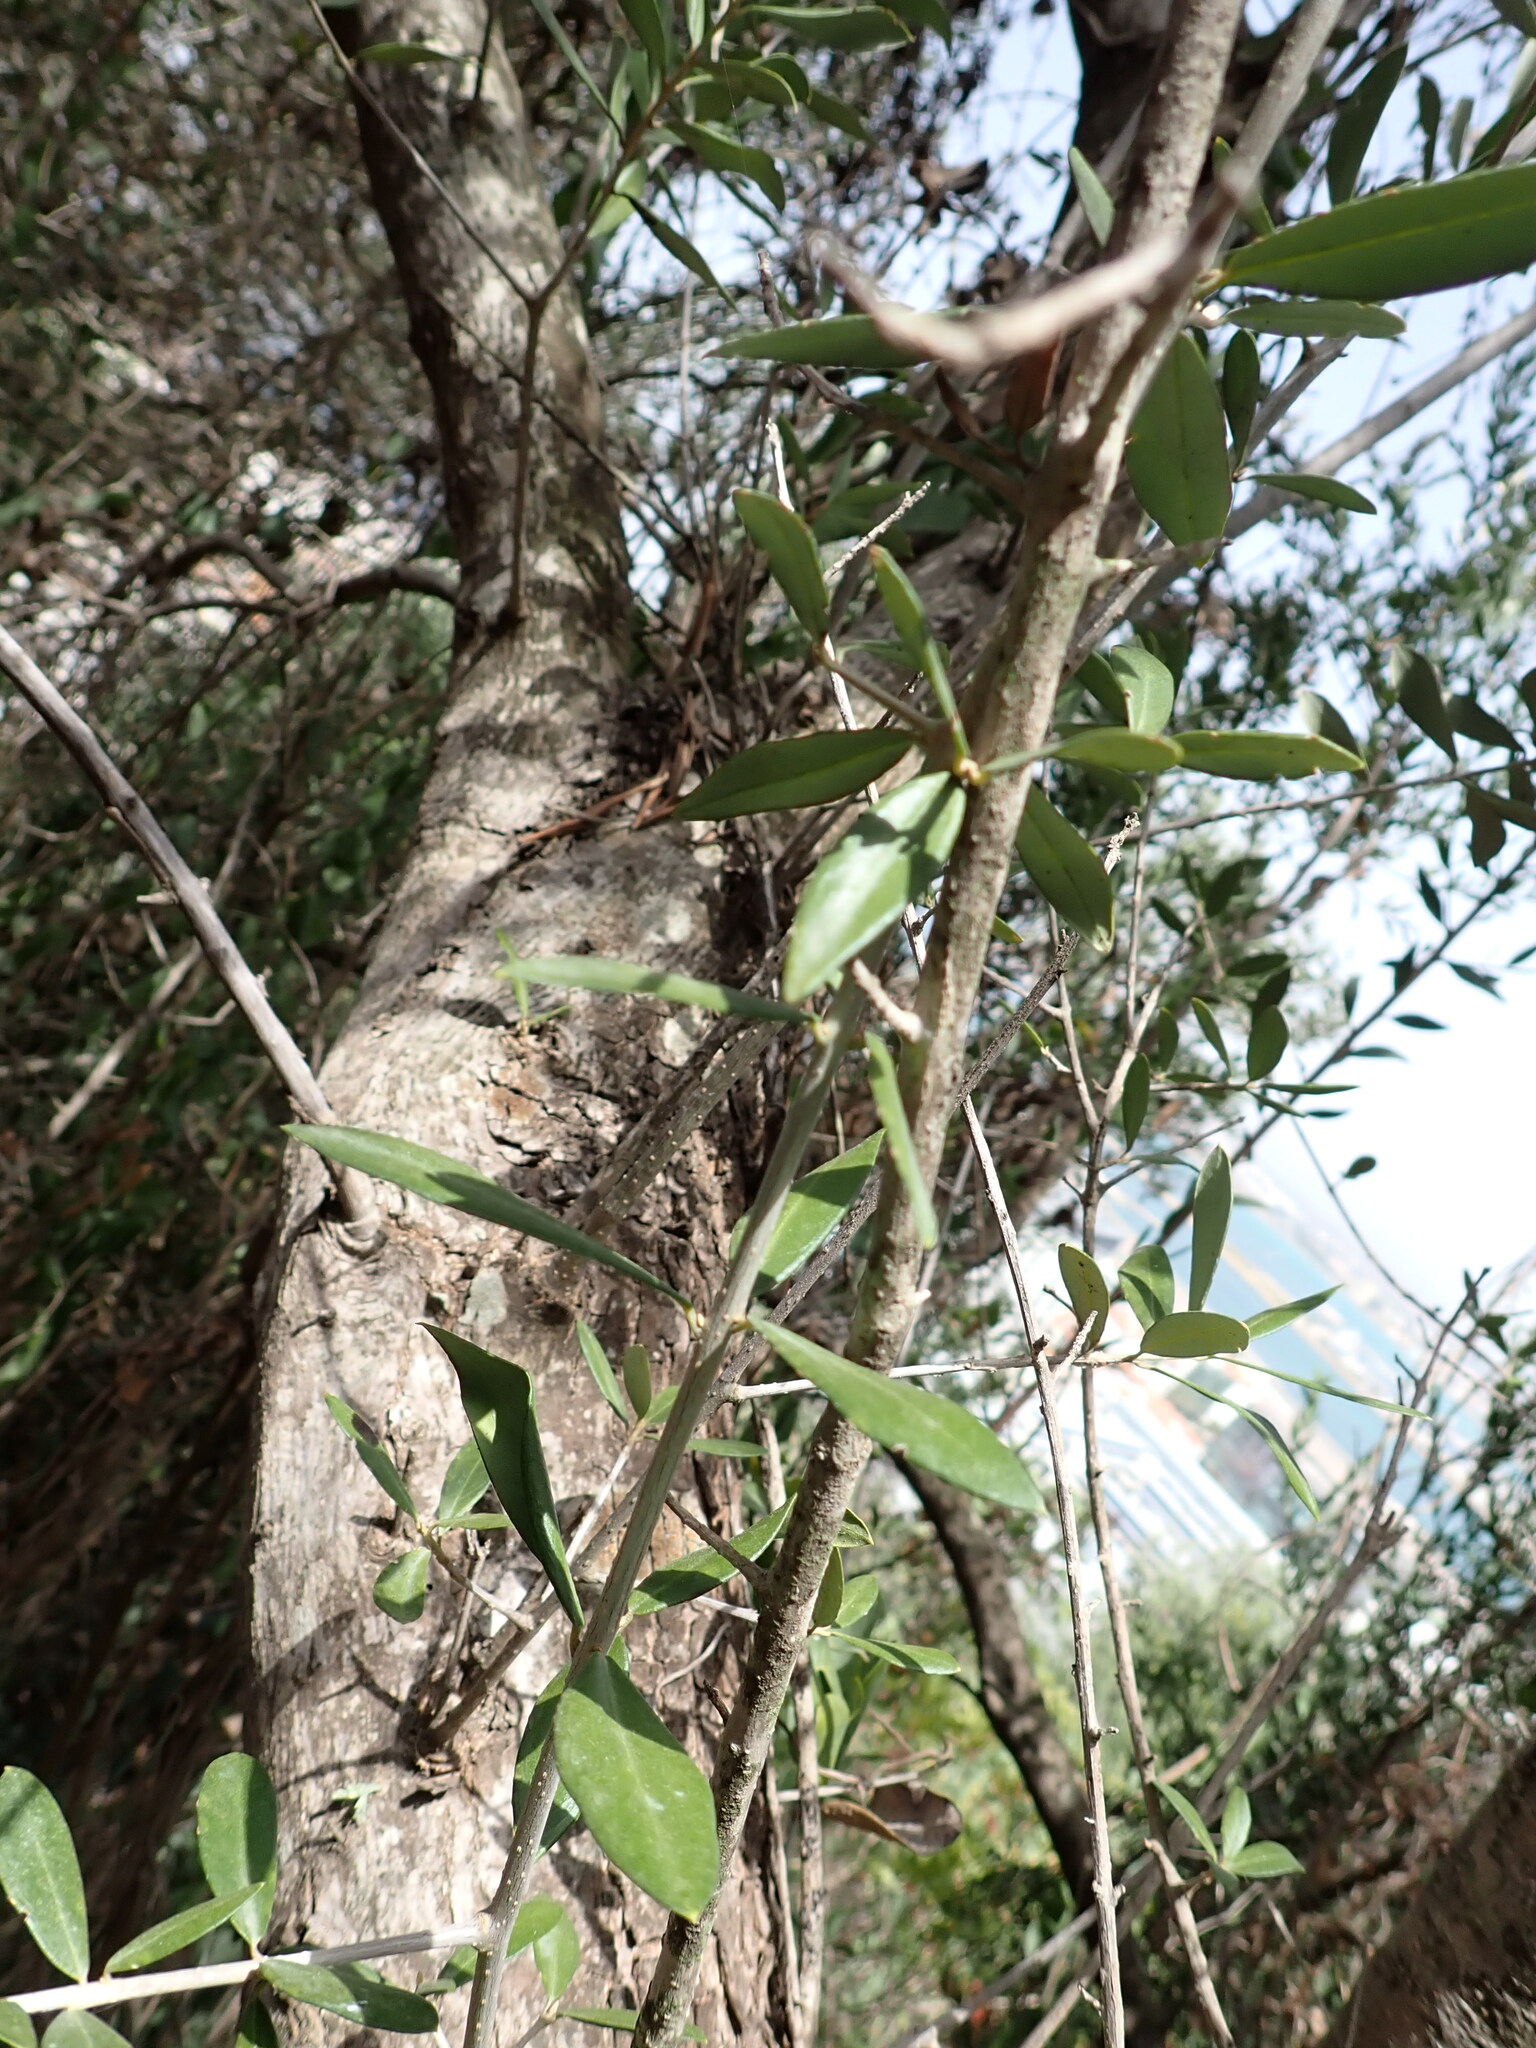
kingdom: Plantae
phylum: Tracheophyta
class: Magnoliopsida
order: Lamiales
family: Oleaceae
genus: Olea
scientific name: Olea europaea
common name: Olive
